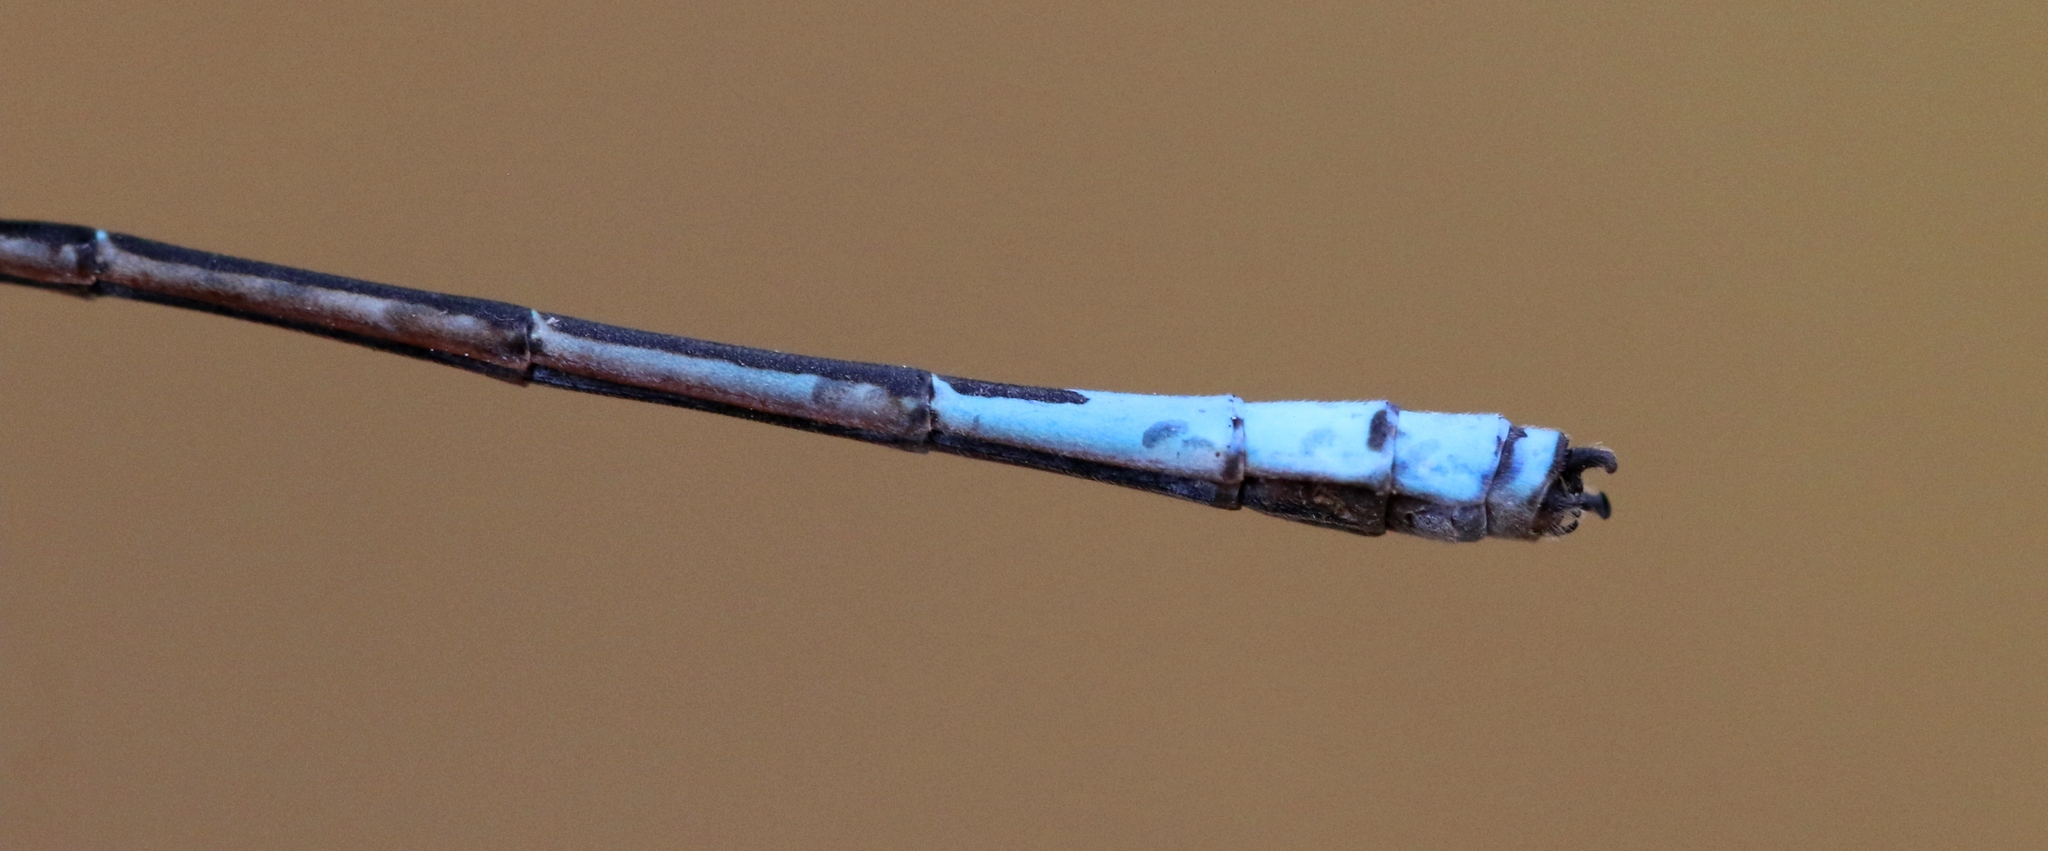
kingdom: Animalia
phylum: Arthropoda
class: Insecta
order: Odonata
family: Coenagrionidae
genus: Enallagma
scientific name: Enallagma aspersum
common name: Azure bluet
